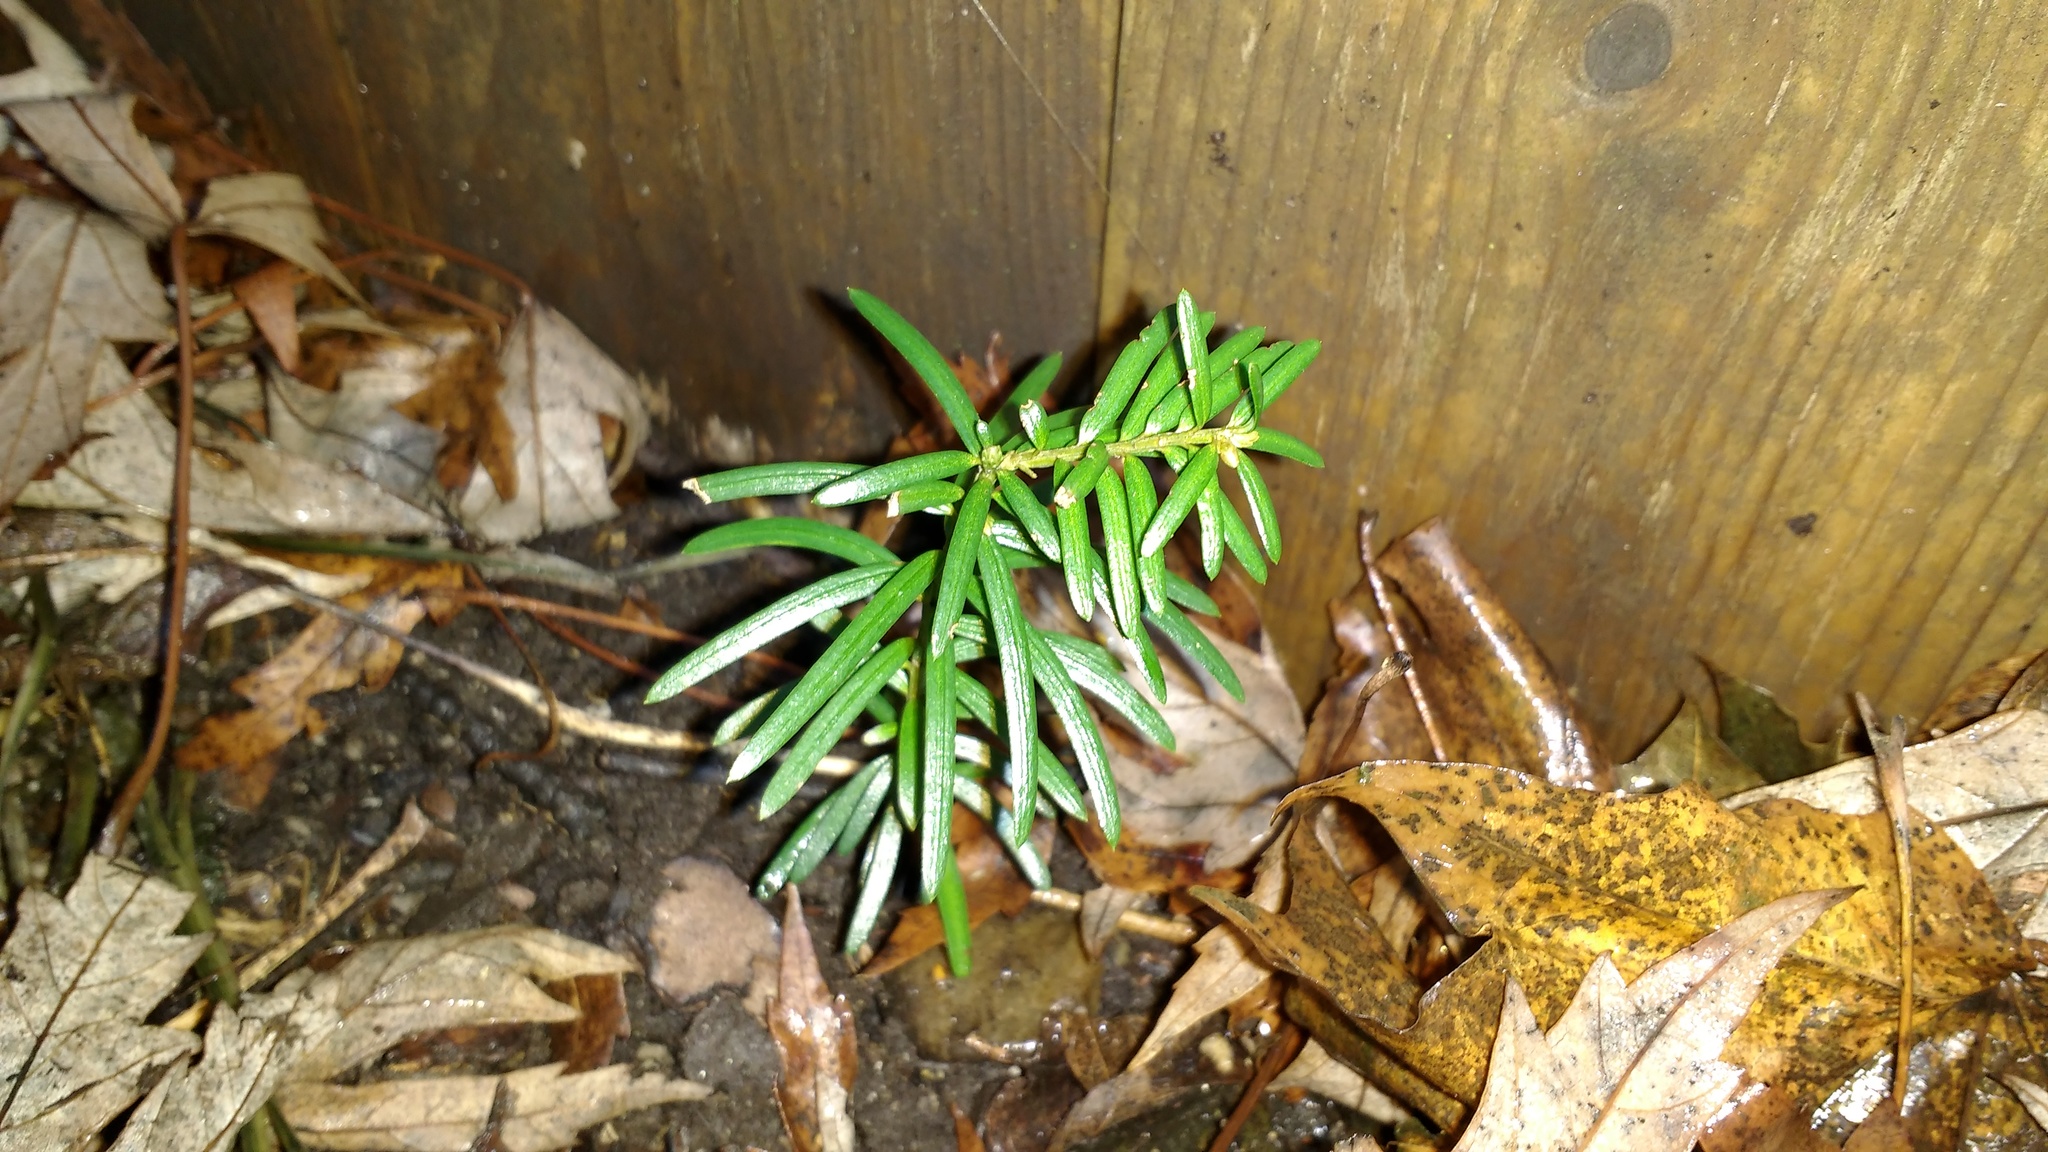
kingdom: Plantae
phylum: Tracheophyta
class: Pinopsida
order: Pinales
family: Taxaceae
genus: Taxus
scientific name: Taxus baccata
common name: Yew
